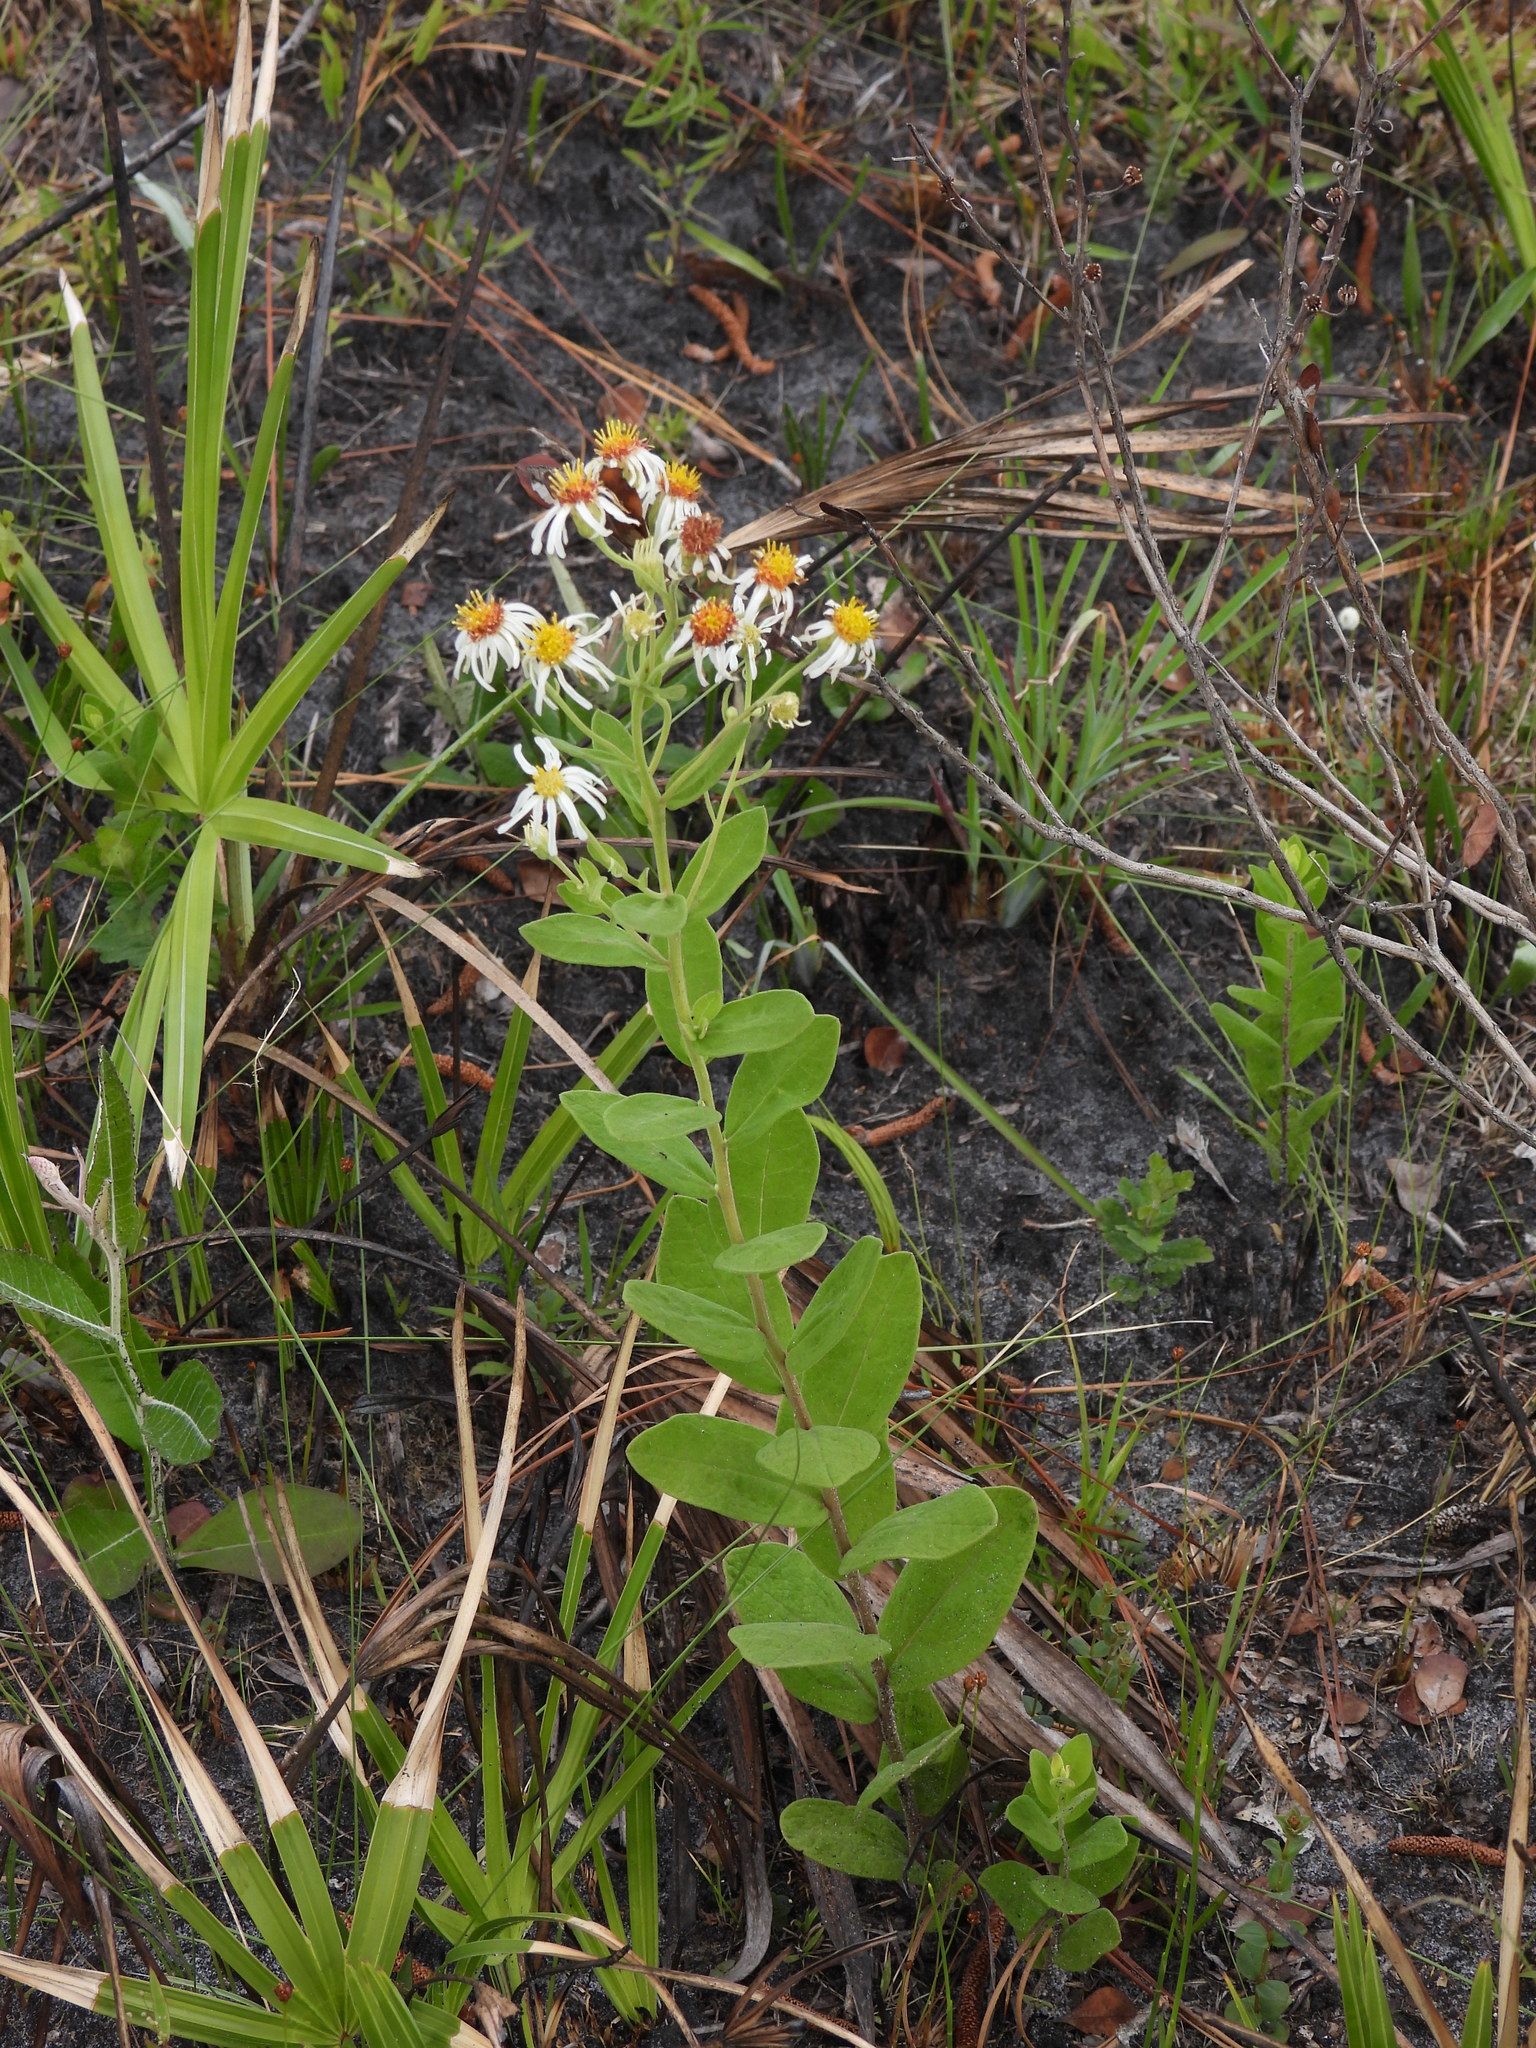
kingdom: Plantae
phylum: Tracheophyta
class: Magnoliopsida
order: Asterales
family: Asteraceae
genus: Sericocarpus
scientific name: Sericocarpus tortifolius
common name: Dixie aster
